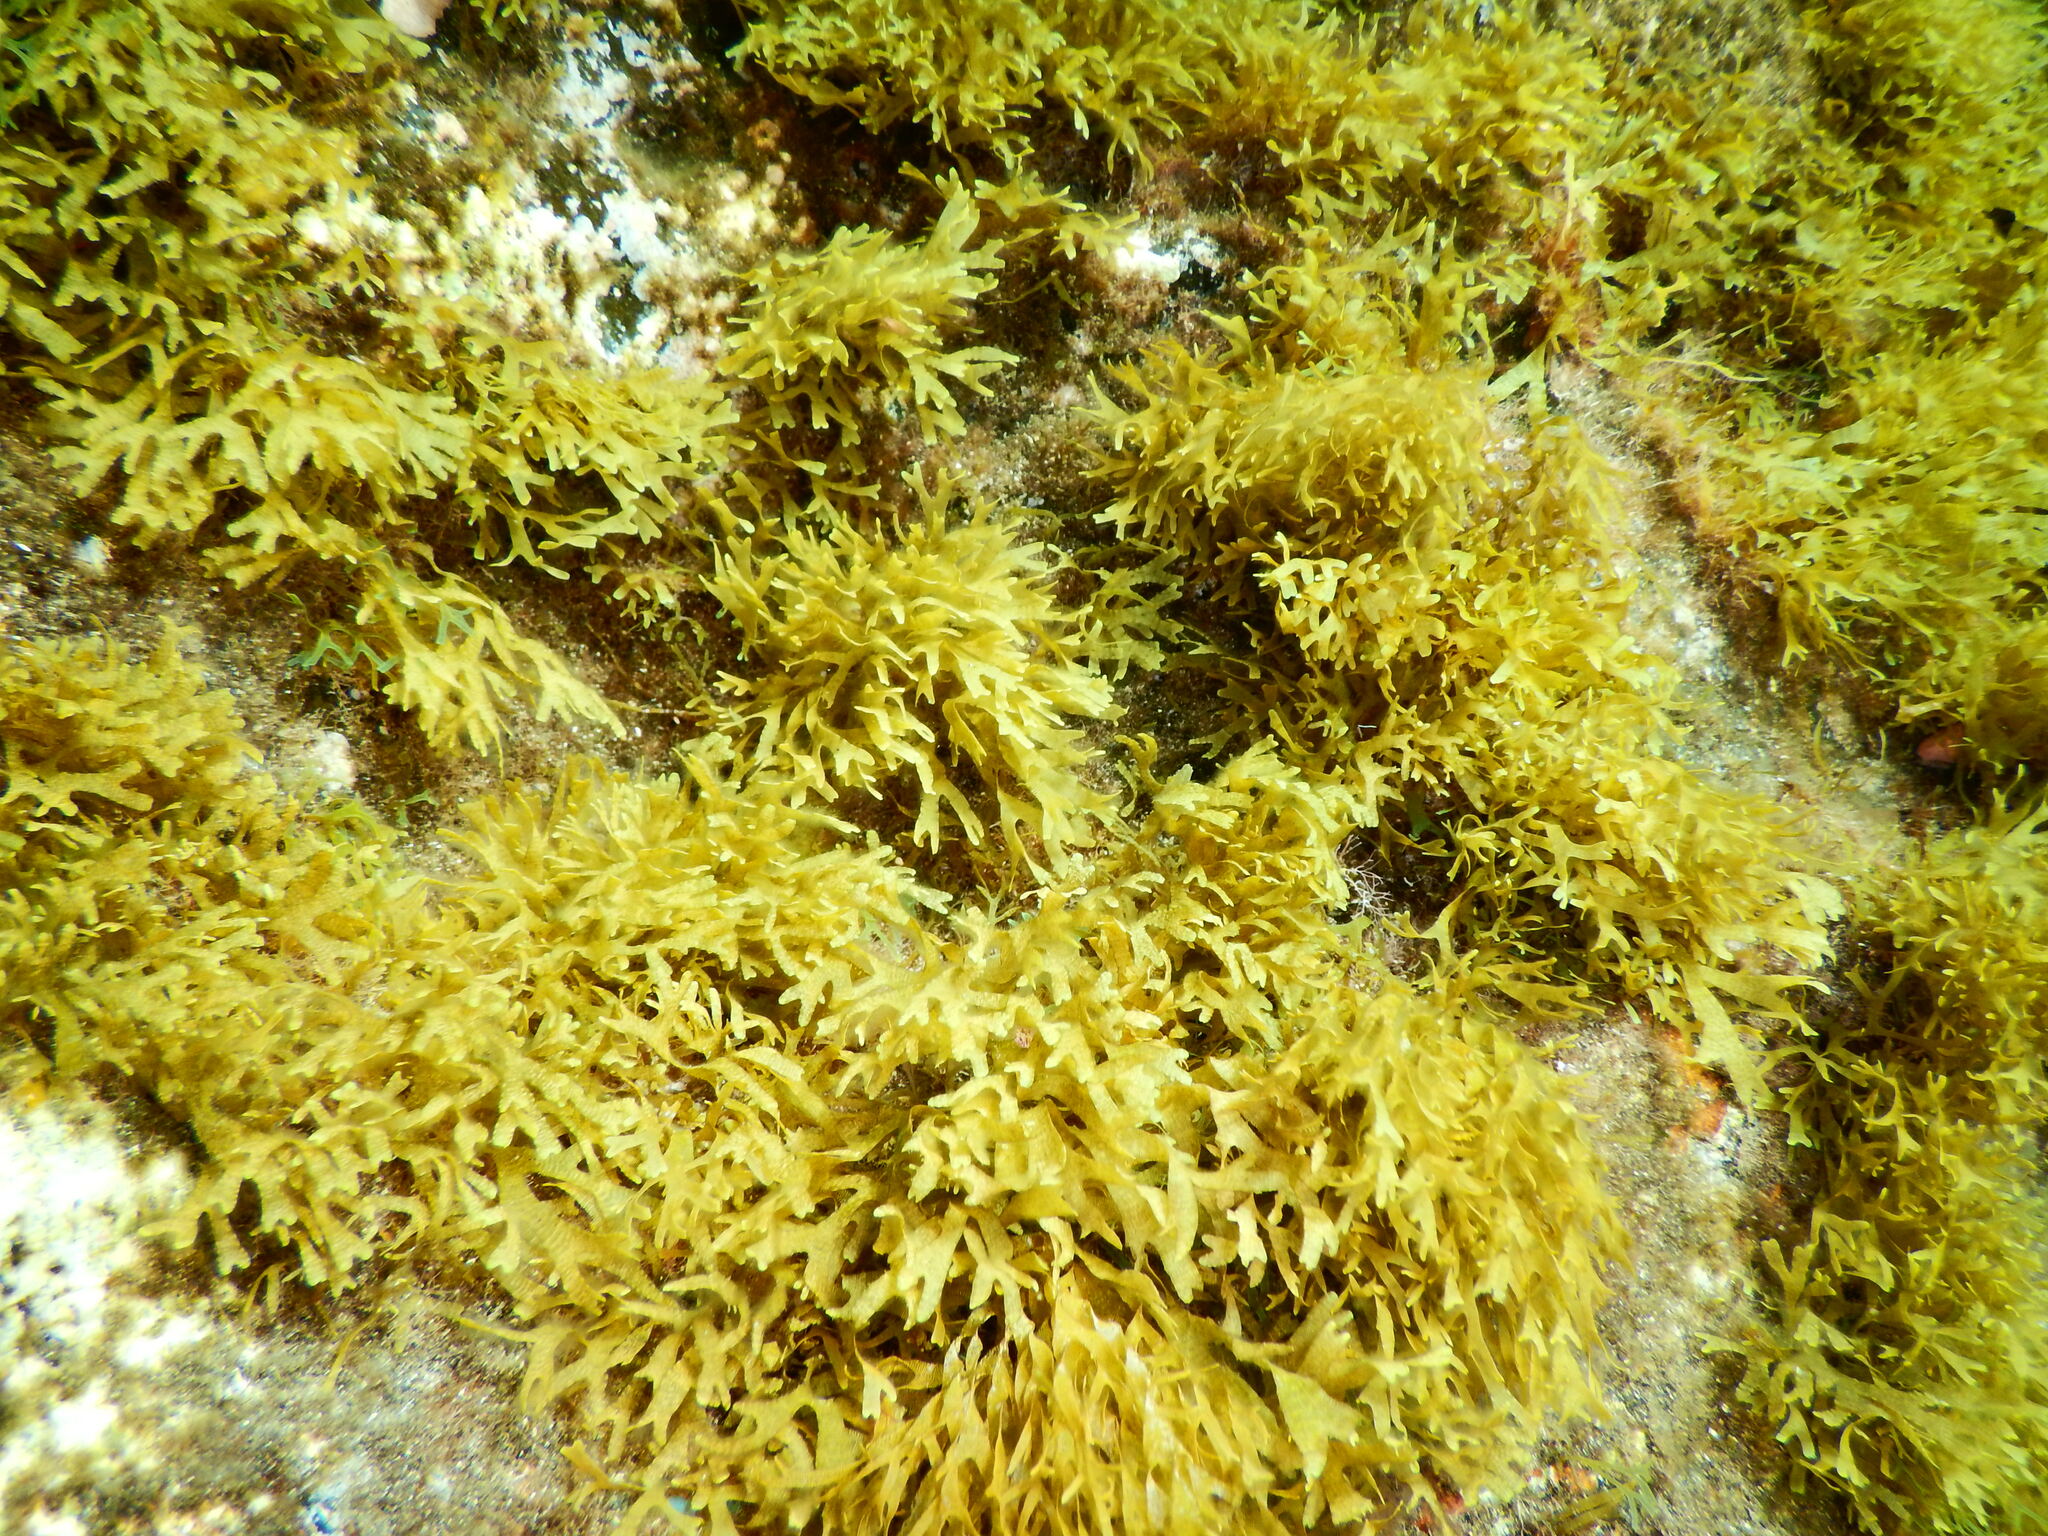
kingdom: Chromista
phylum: Ochrophyta
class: Phaeophyceae
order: Dictyotales
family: Dictyotaceae
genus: Dictyota
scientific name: Dictyota dichotoma
